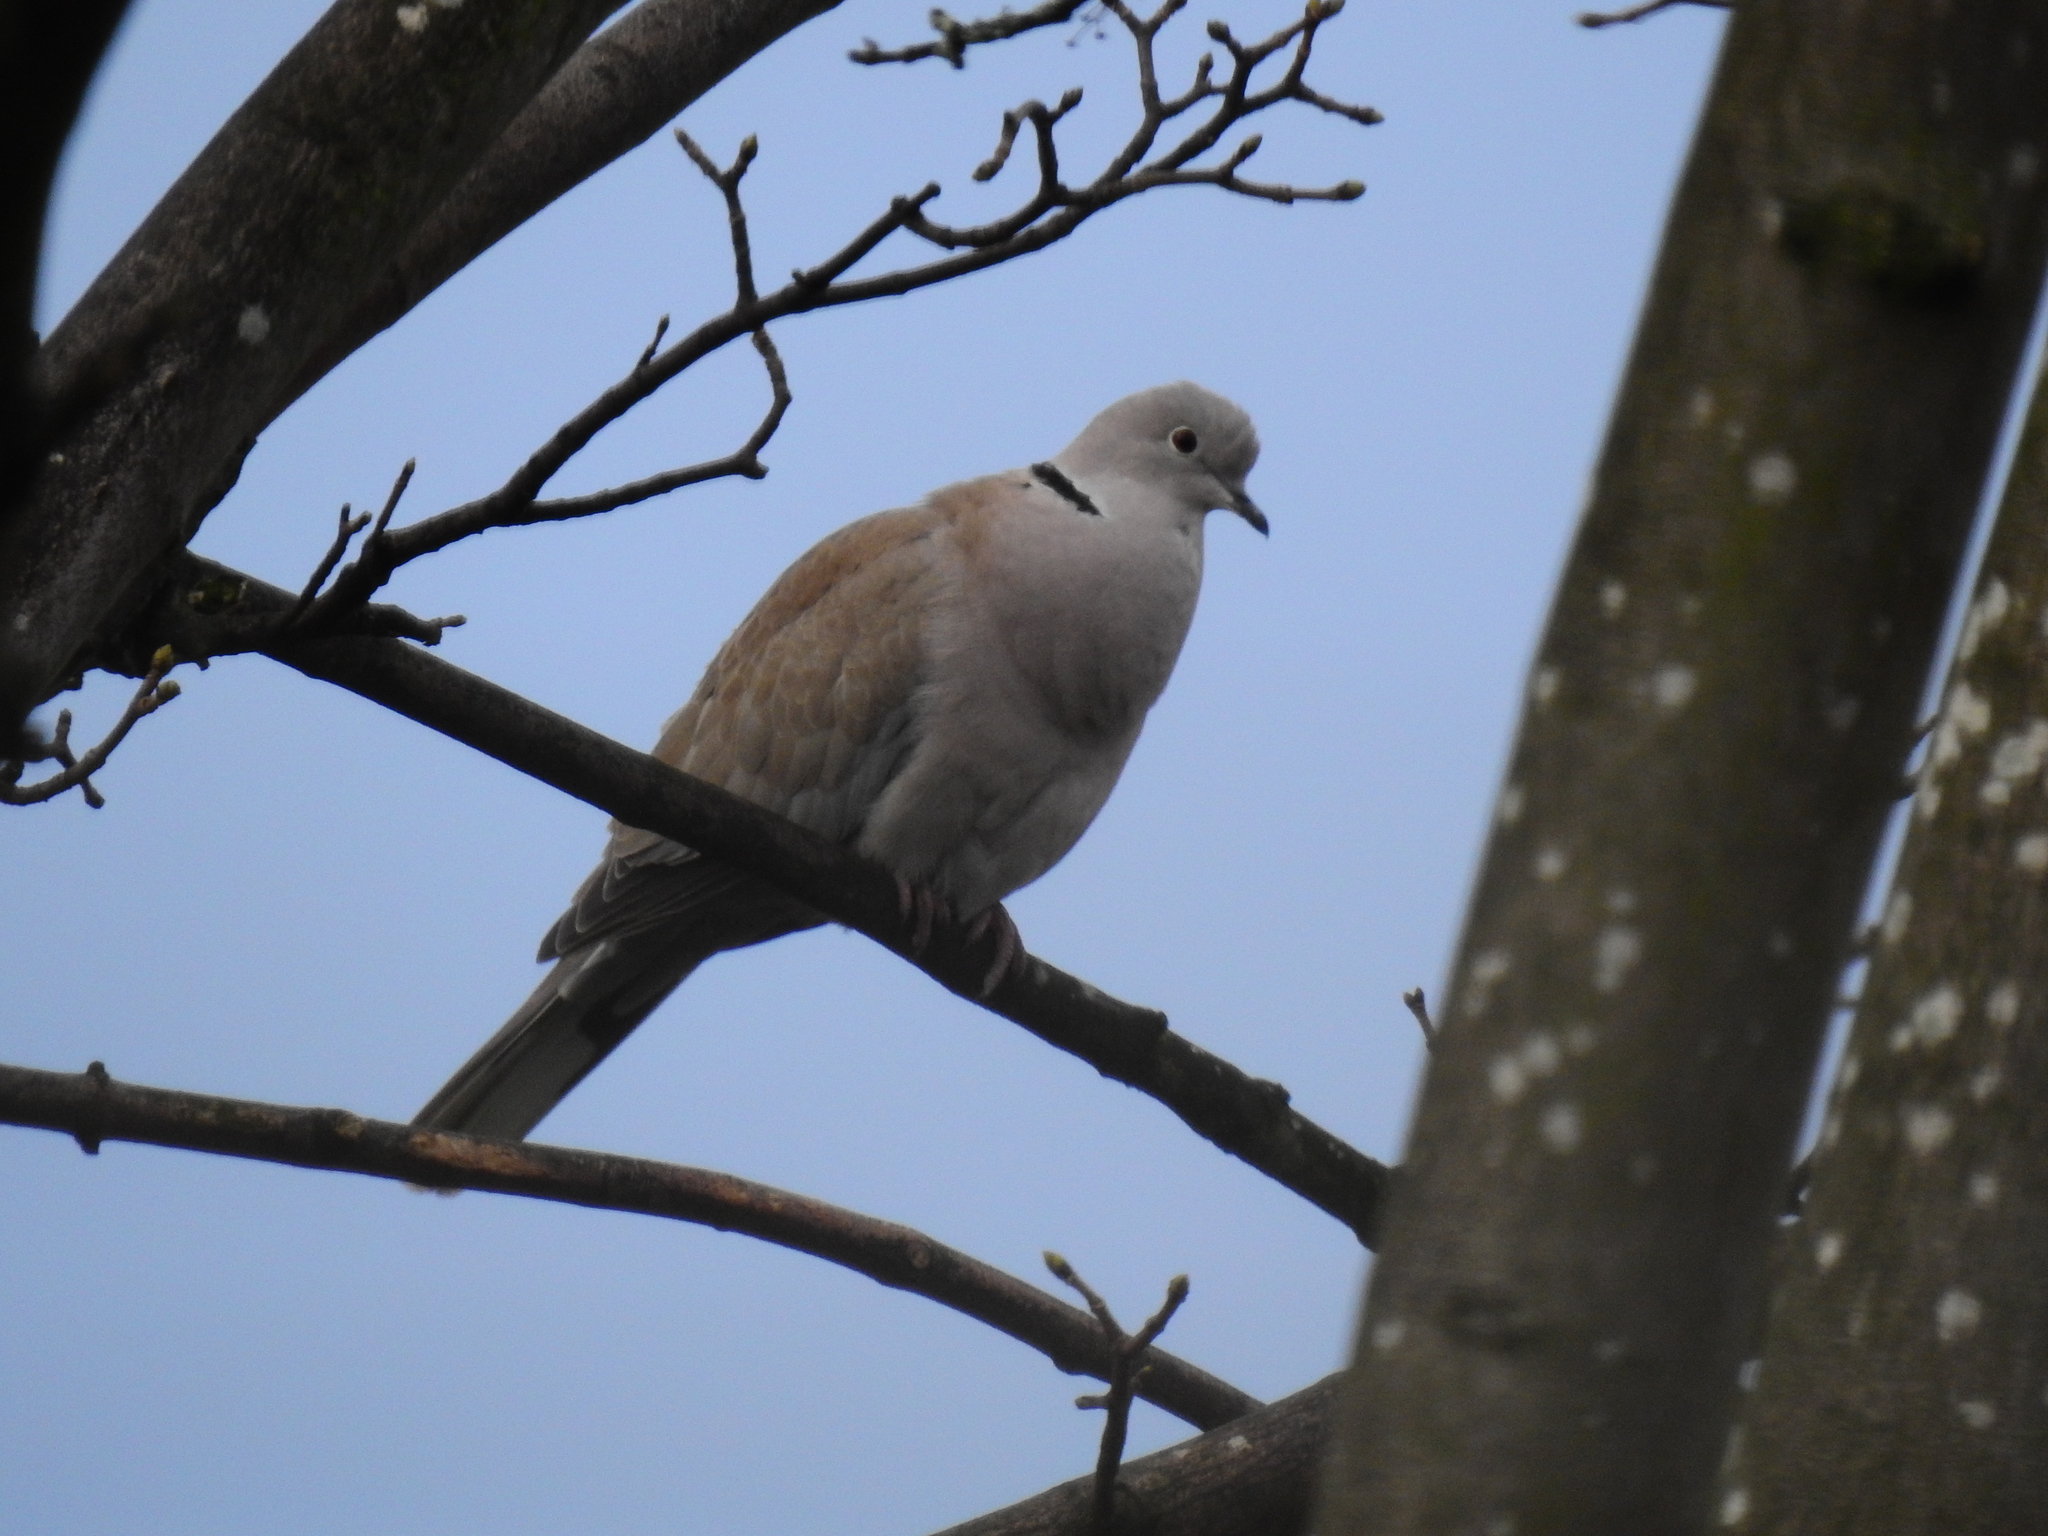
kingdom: Animalia
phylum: Chordata
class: Aves
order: Columbiformes
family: Columbidae
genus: Streptopelia
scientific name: Streptopelia decaocto
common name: Eurasian collared dove
